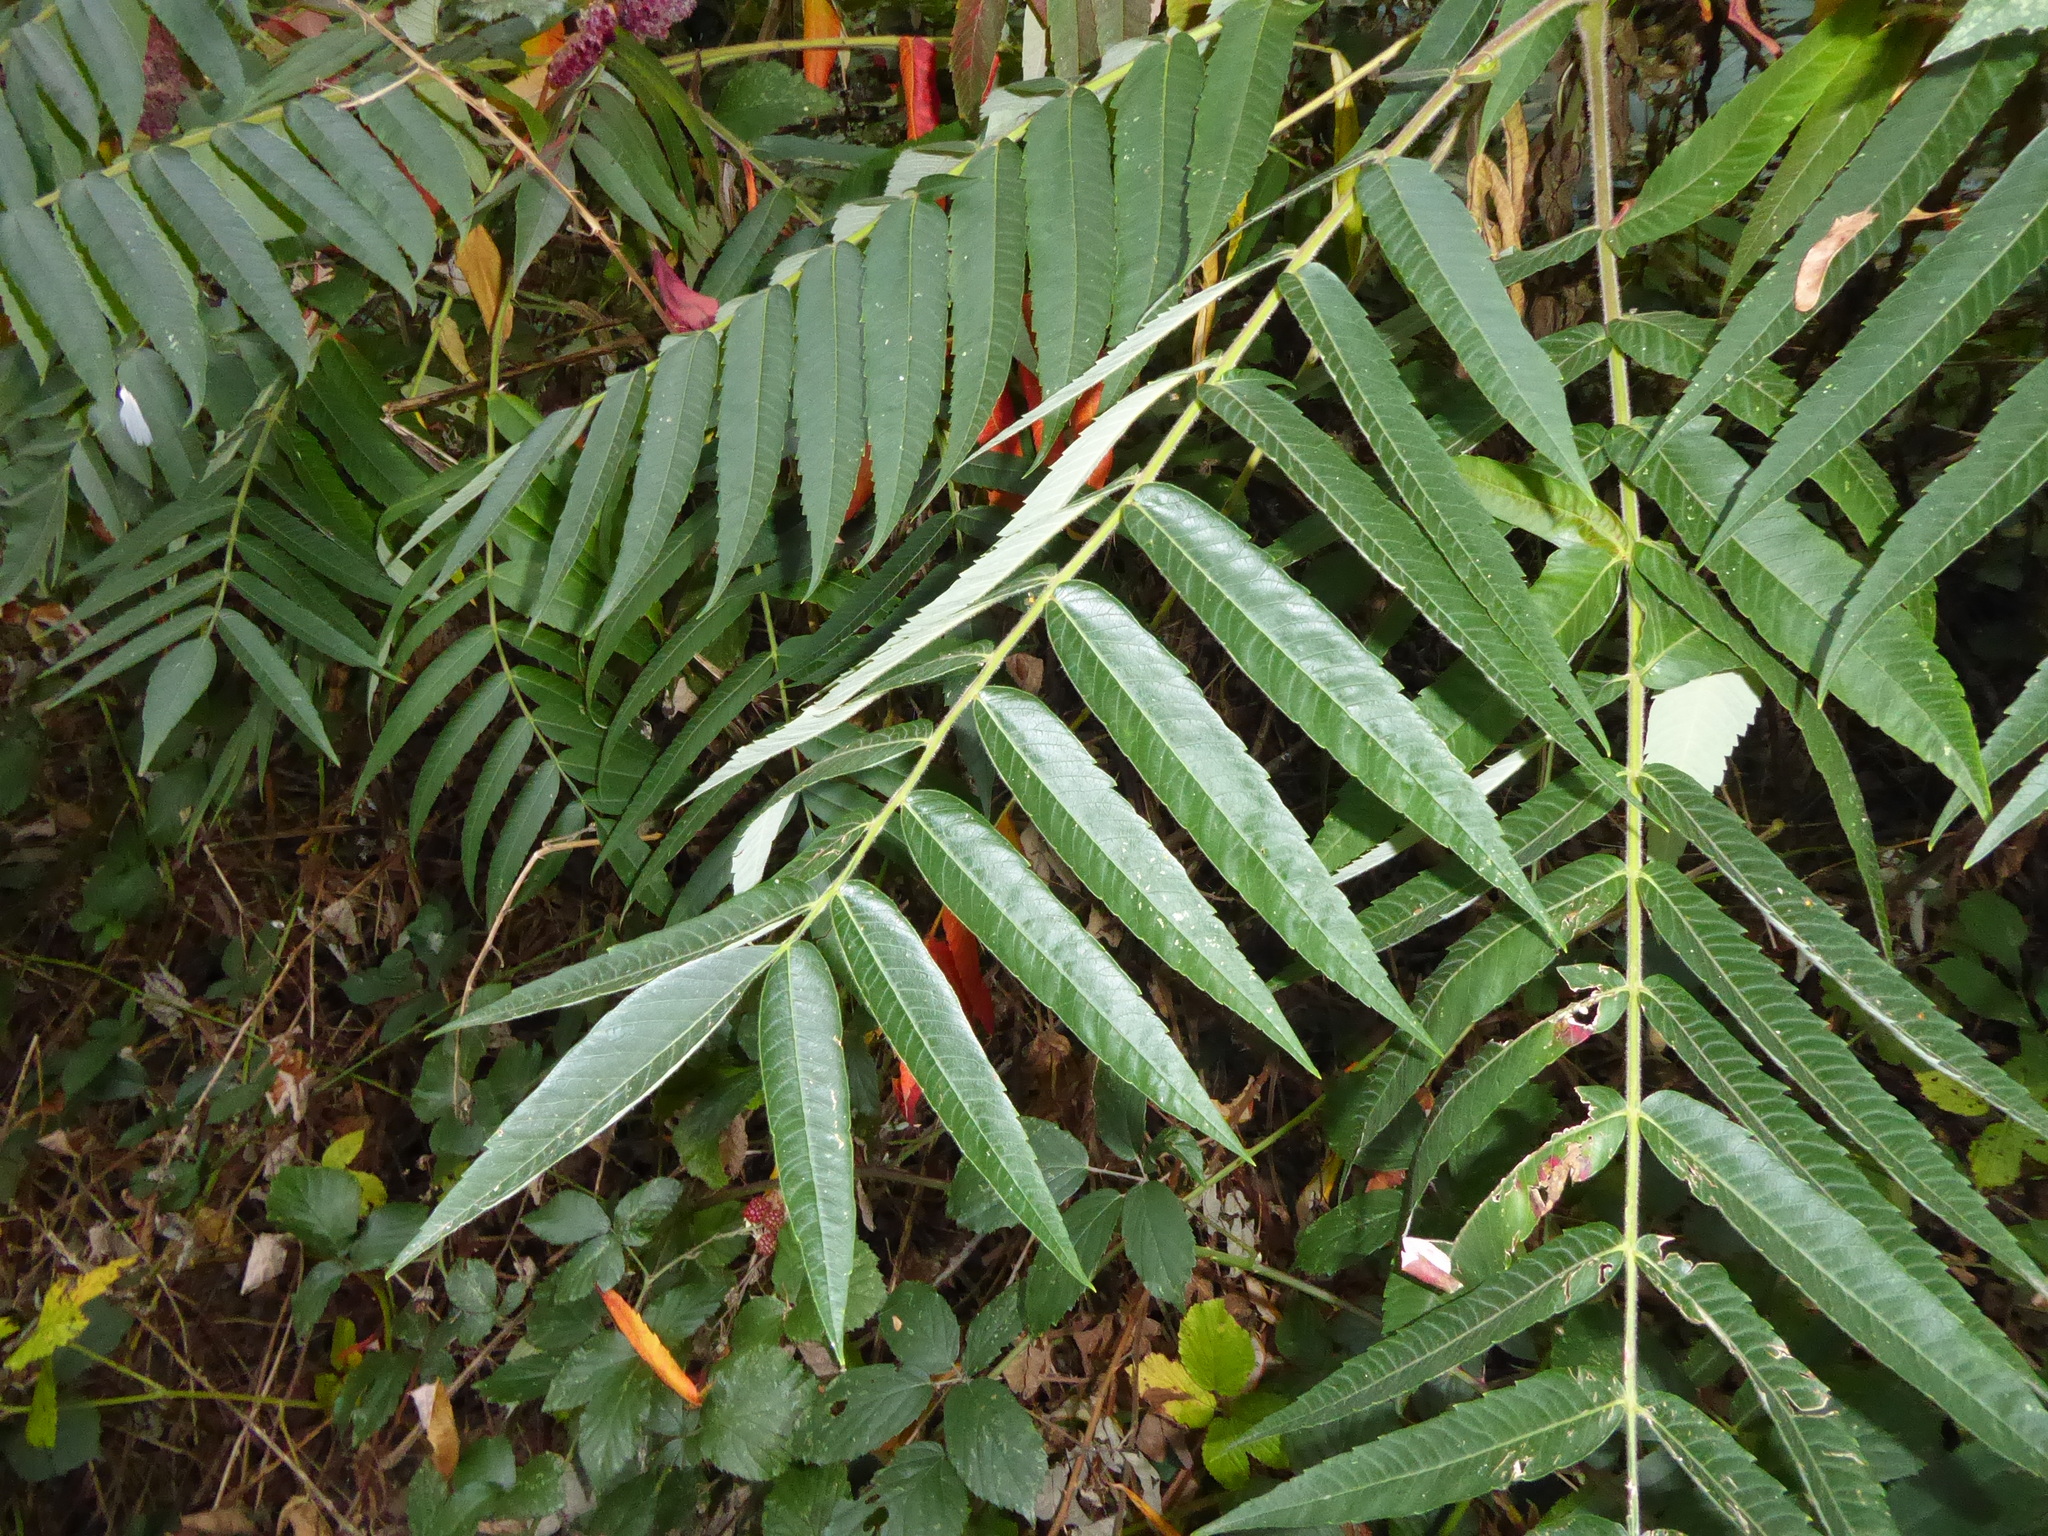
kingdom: Plantae
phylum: Tracheophyta
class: Magnoliopsida
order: Sapindales
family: Anacardiaceae
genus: Rhus
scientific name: Rhus typhina
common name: Staghorn sumac
